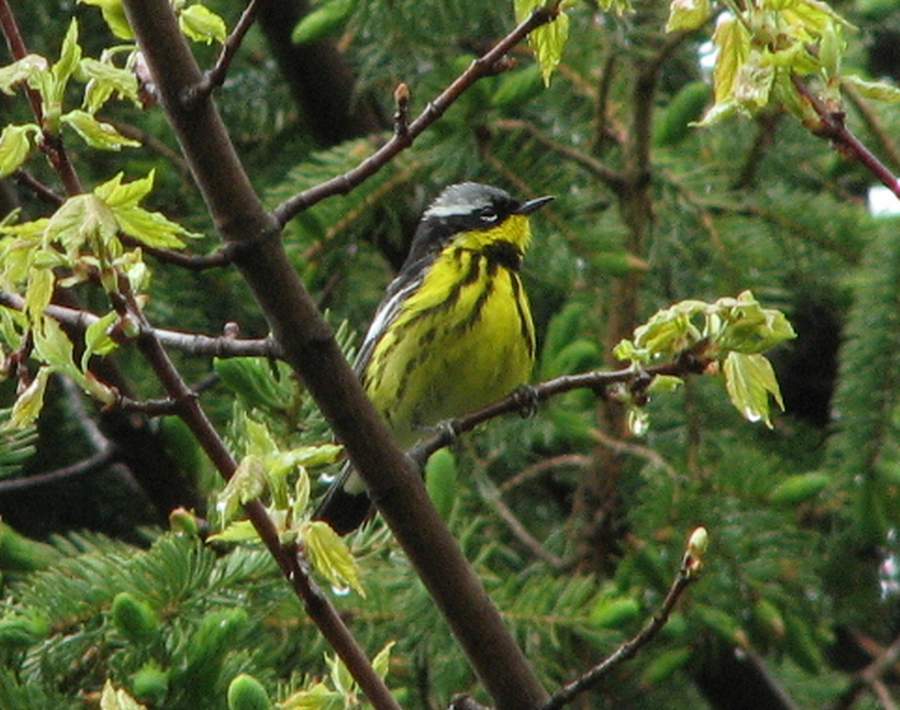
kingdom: Animalia
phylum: Chordata
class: Aves
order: Passeriformes
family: Parulidae
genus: Setophaga
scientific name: Setophaga magnolia
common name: Magnolia warbler
